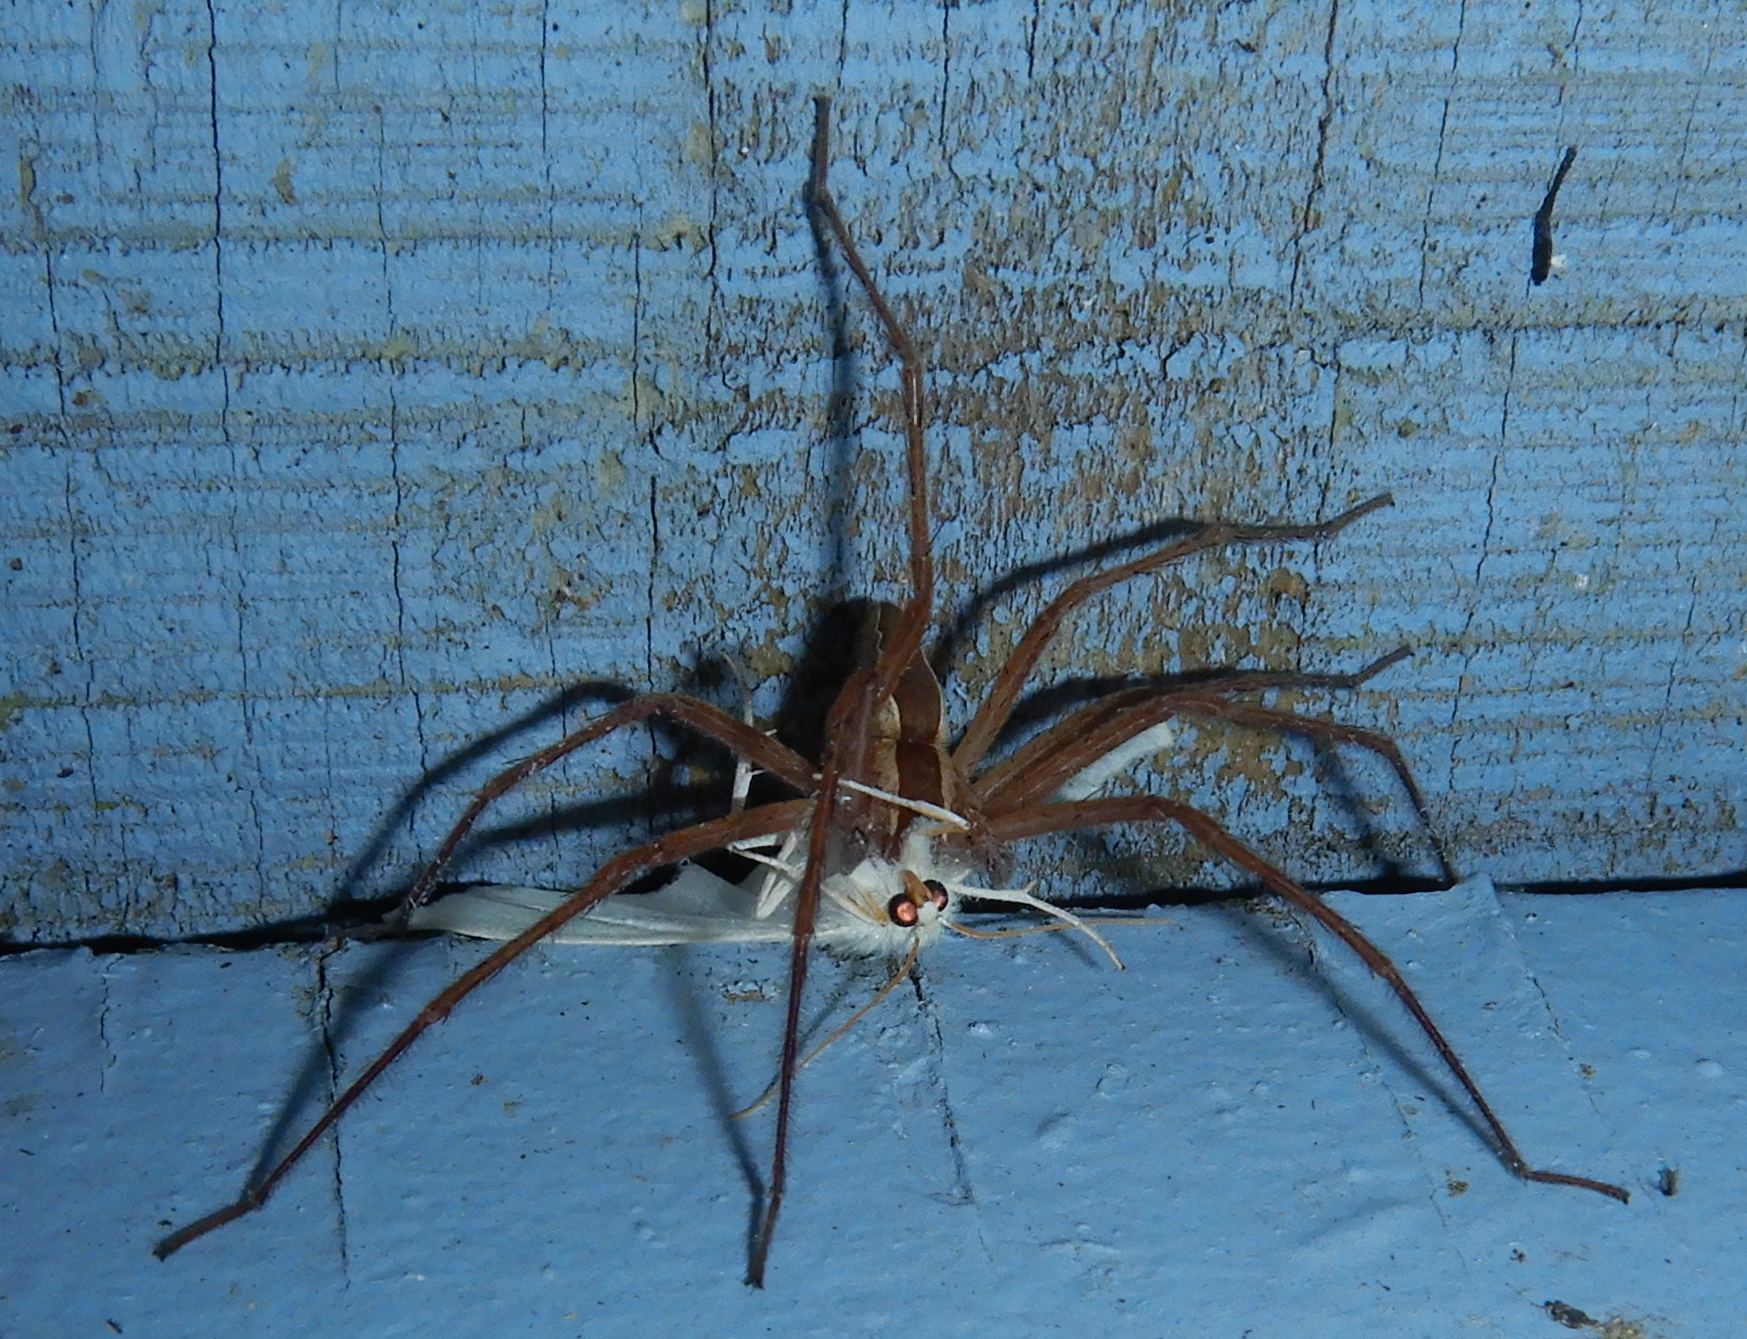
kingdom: Animalia
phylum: Arthropoda
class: Arachnida
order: Araneae
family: Pisauridae
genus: Pisaurina
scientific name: Pisaurina mira
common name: American nursery web spider
